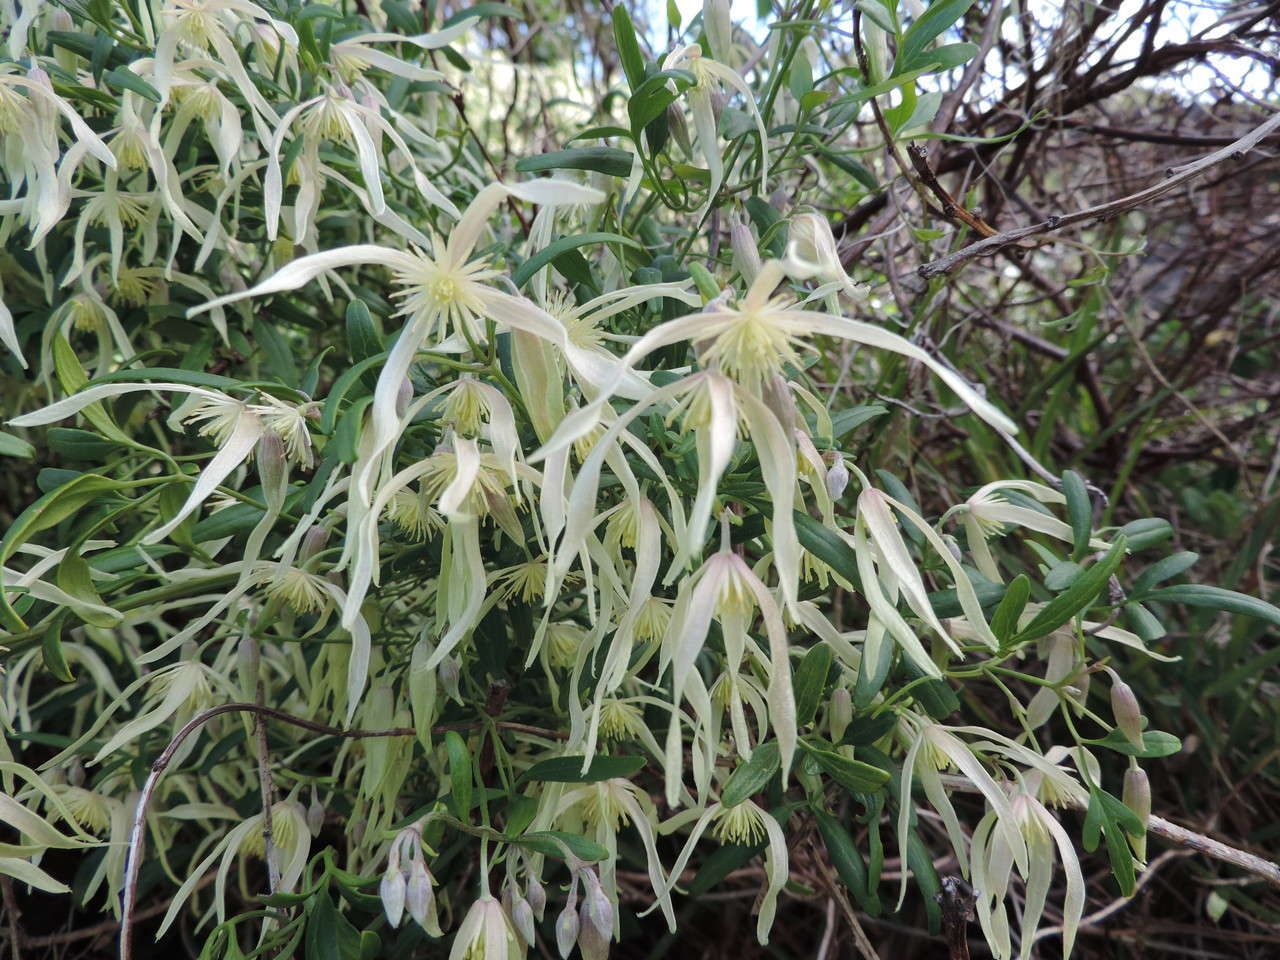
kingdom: Plantae
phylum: Tracheophyta
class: Magnoliopsida
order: Ranunculales
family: Ranunculaceae
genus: Clematis
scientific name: Clematis microphylla
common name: Headachevine
